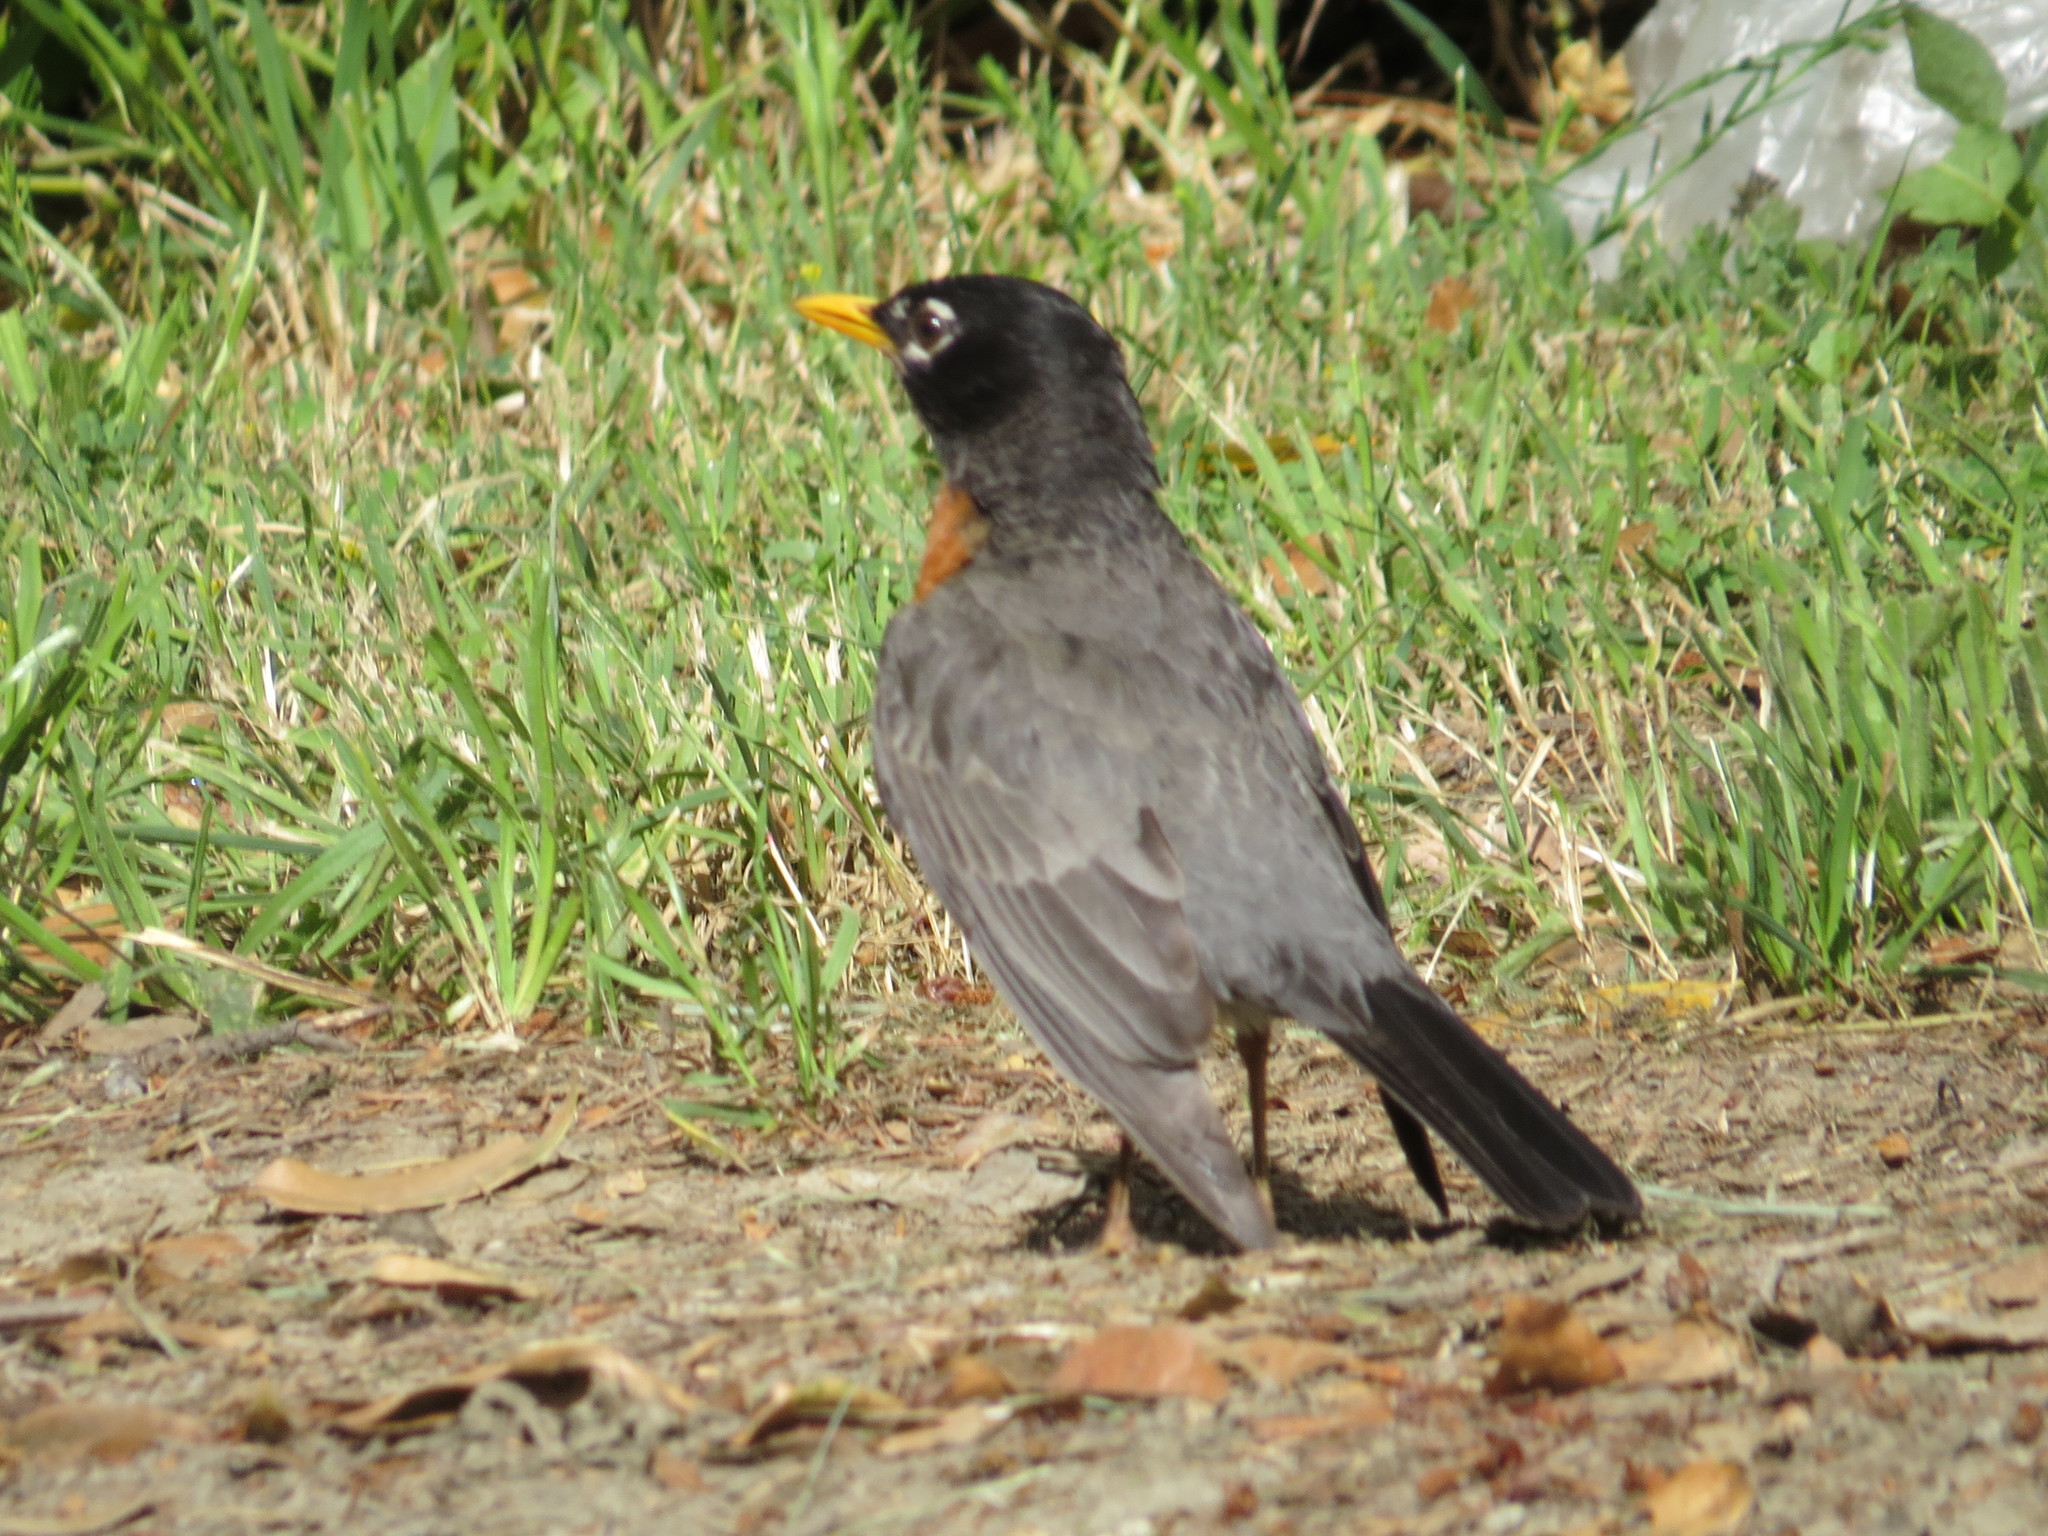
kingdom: Animalia
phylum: Chordata
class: Aves
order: Passeriformes
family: Turdidae
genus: Turdus
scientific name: Turdus migratorius
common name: American robin
